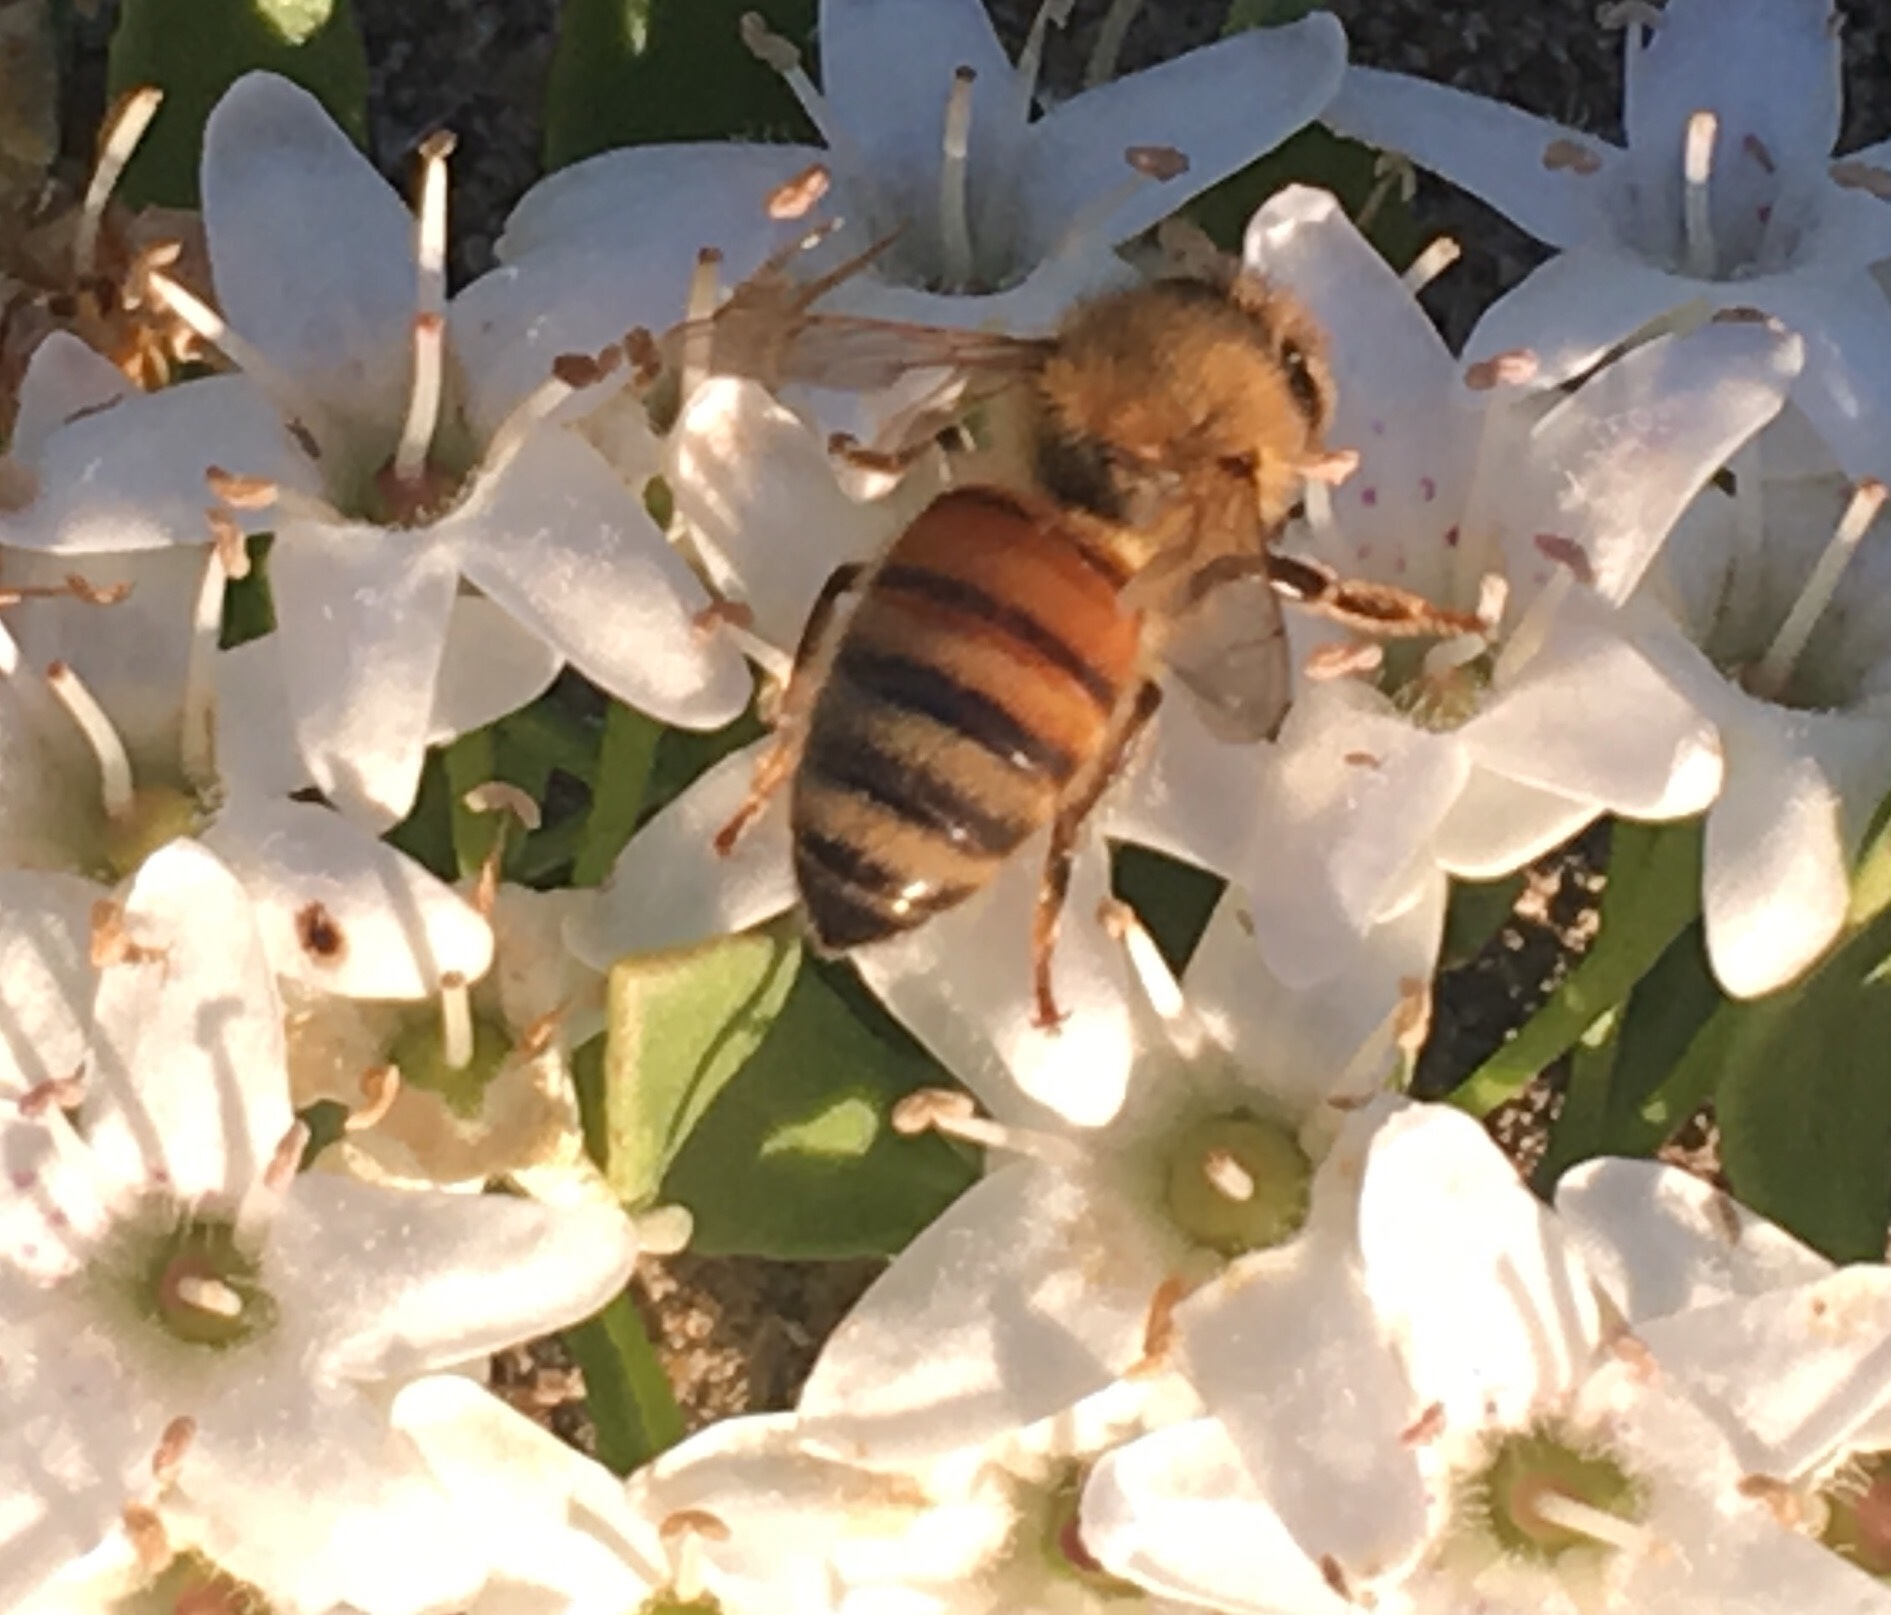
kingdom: Animalia
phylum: Arthropoda
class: Insecta
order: Hymenoptera
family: Apidae
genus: Apis
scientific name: Apis mellifera
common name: Honey bee
